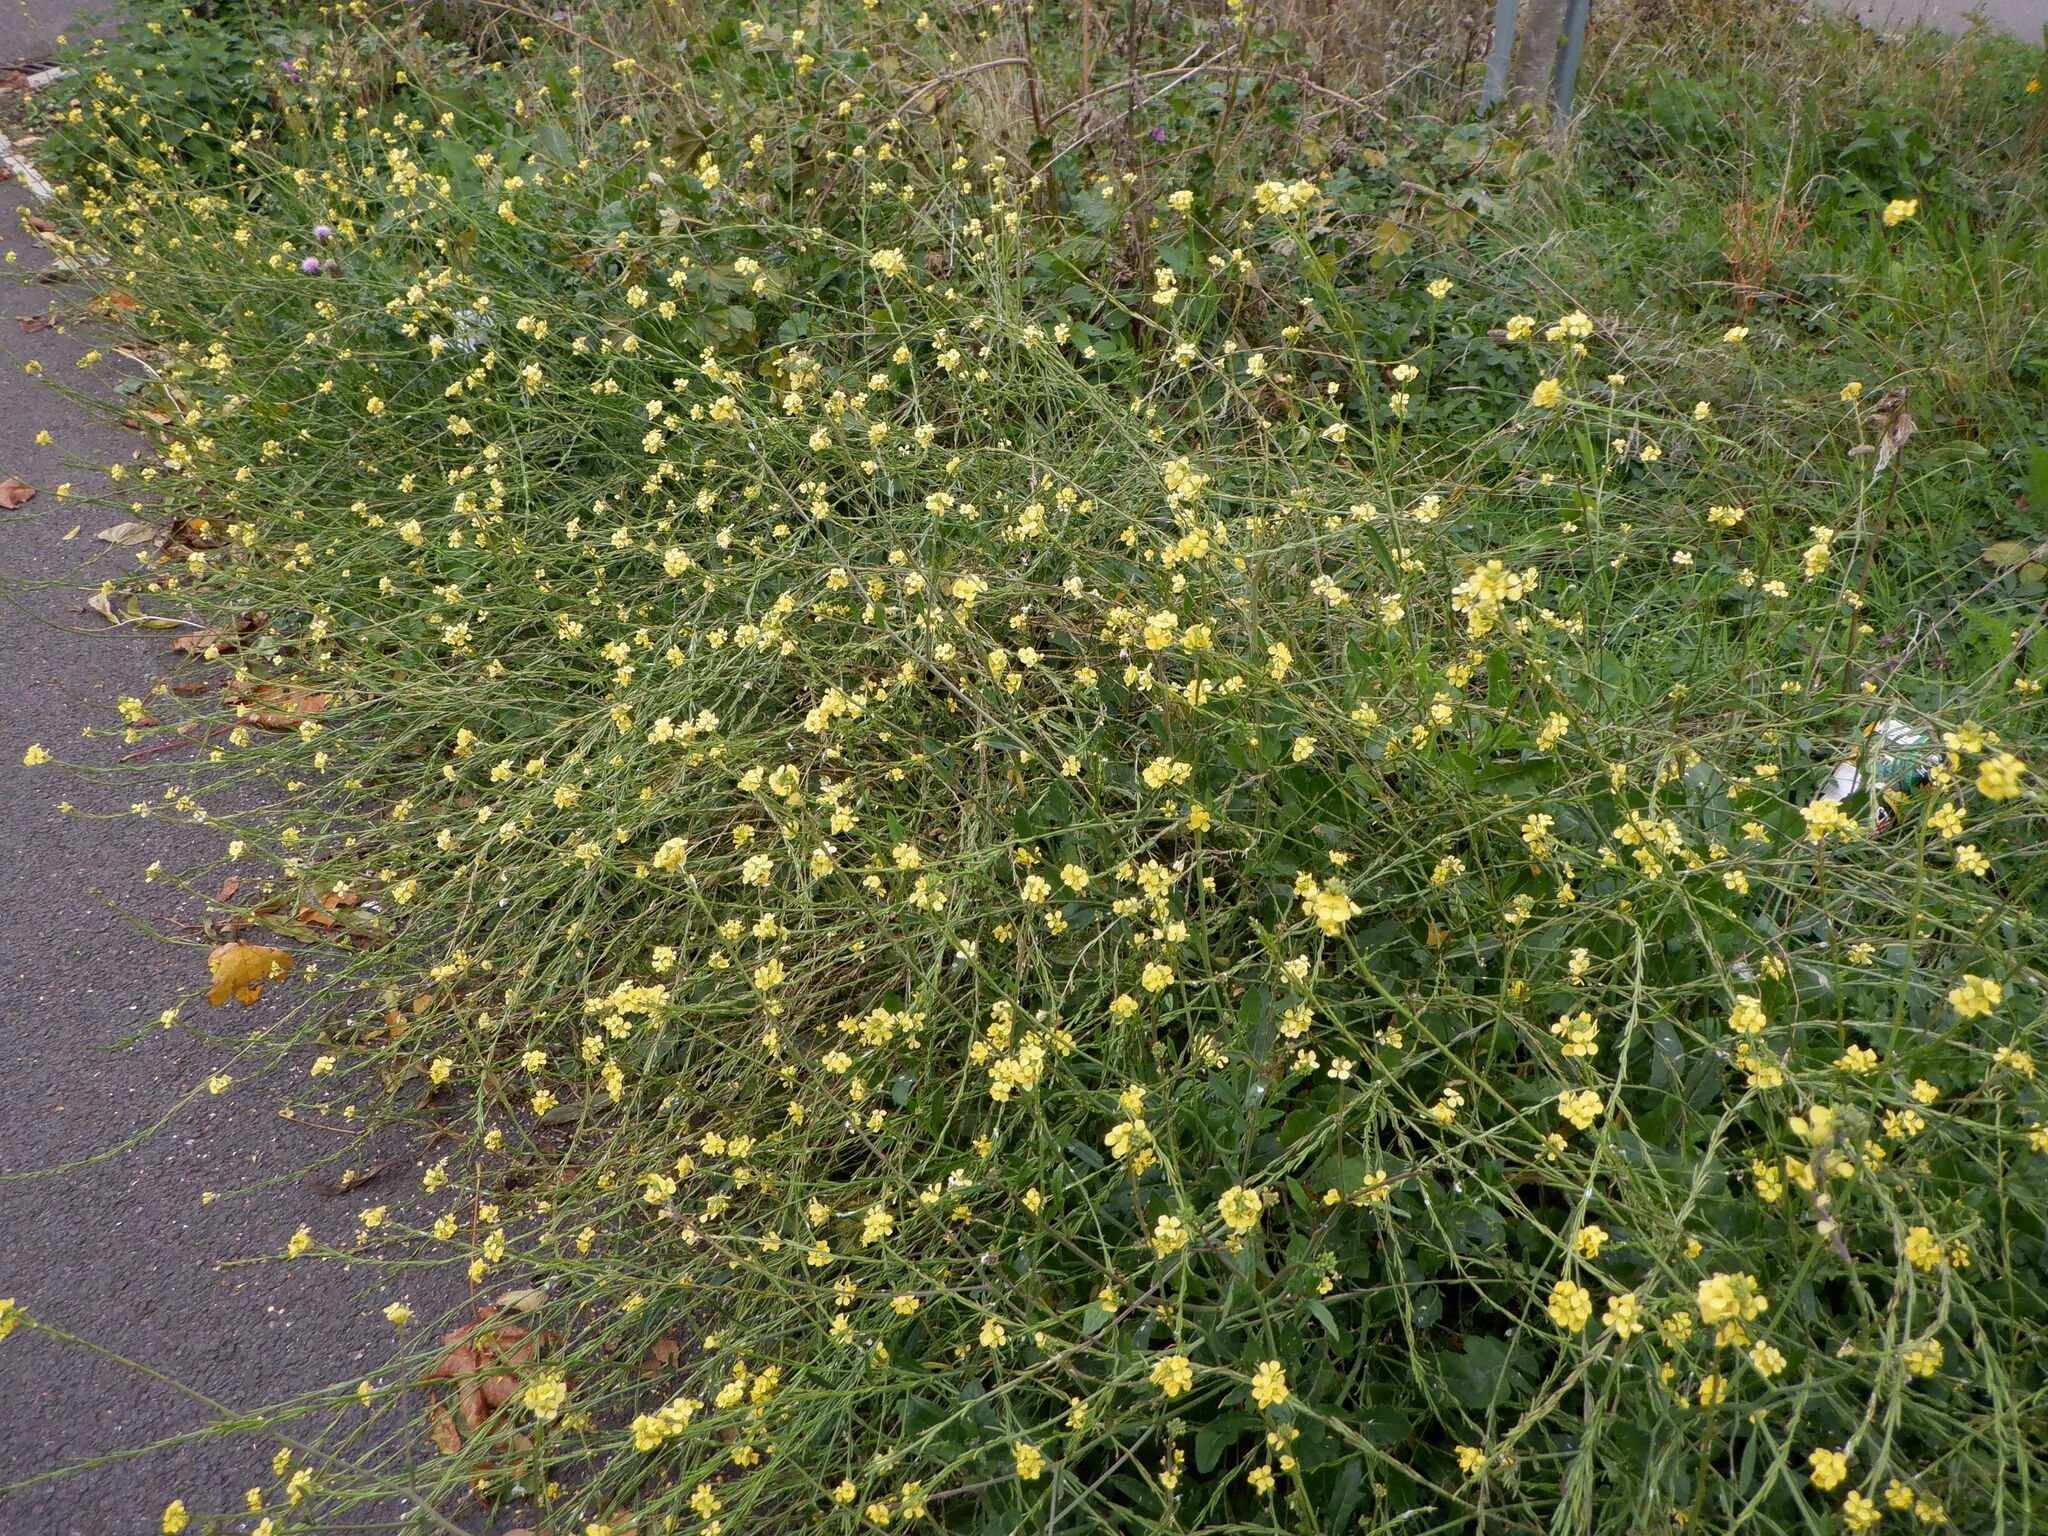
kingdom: Plantae
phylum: Tracheophyta
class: Magnoliopsida
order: Brassicales
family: Brassicaceae
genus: Hirschfeldia
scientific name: Hirschfeldia incana
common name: Hoary mustard
